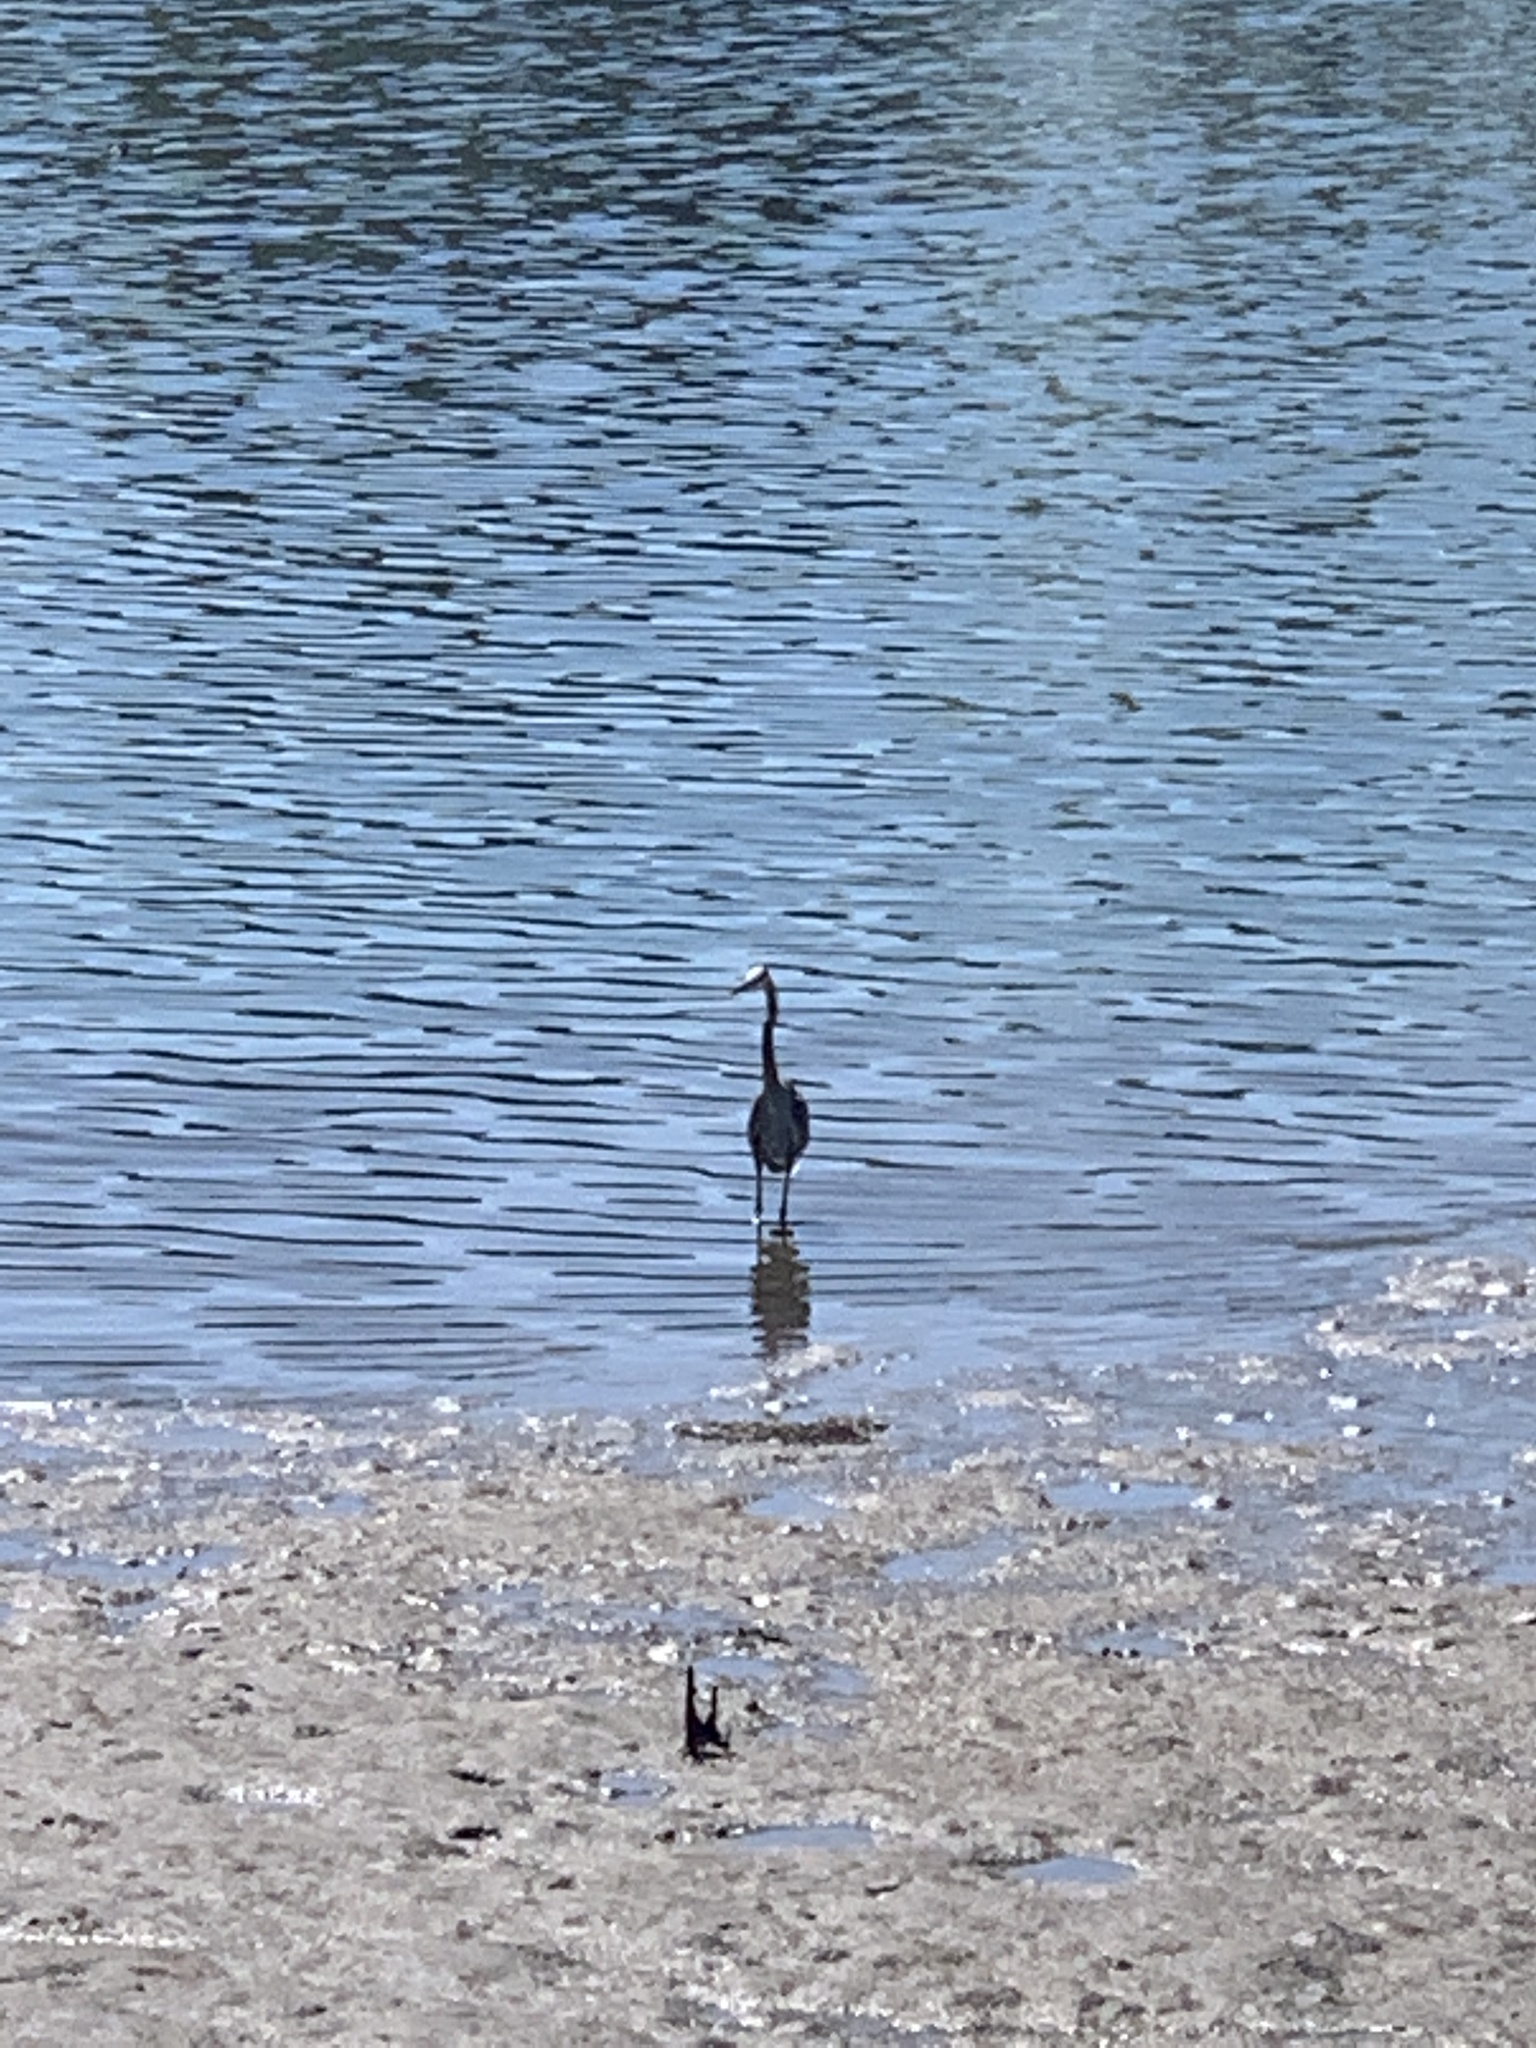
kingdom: Animalia
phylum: Chordata
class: Aves
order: Pelecaniformes
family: Ardeidae
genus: Ardea
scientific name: Ardea herodias
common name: Great blue heron
